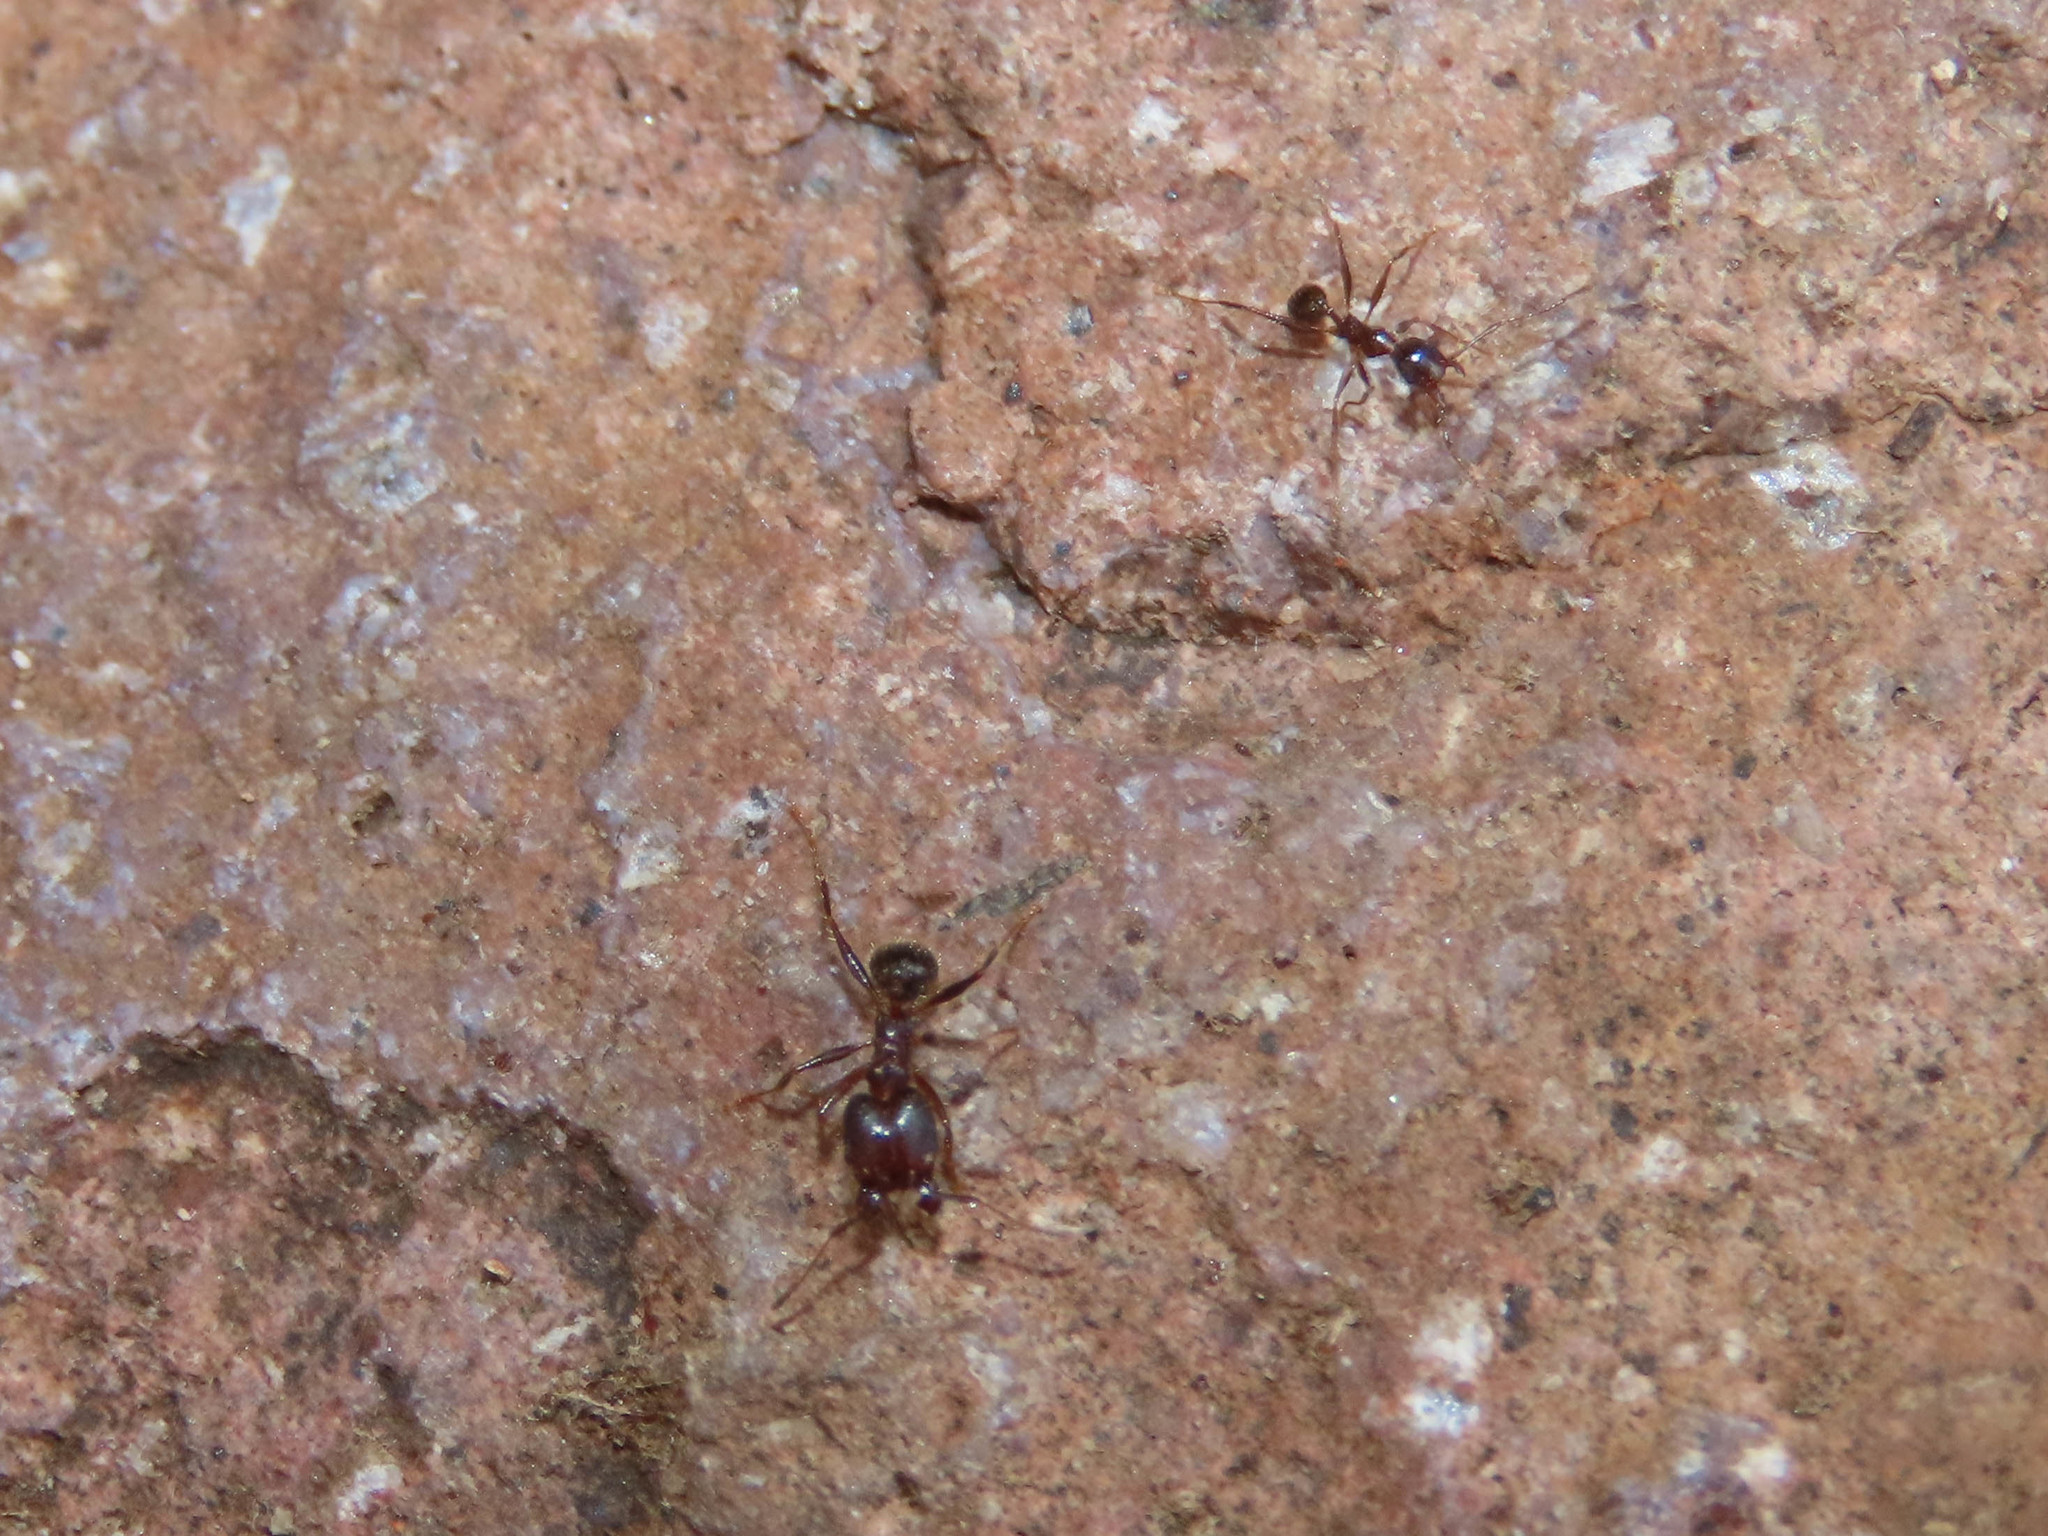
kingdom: Animalia
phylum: Arthropoda
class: Insecta
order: Hymenoptera
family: Formicidae
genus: Pheidole
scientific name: Pheidole obtusospinosa
